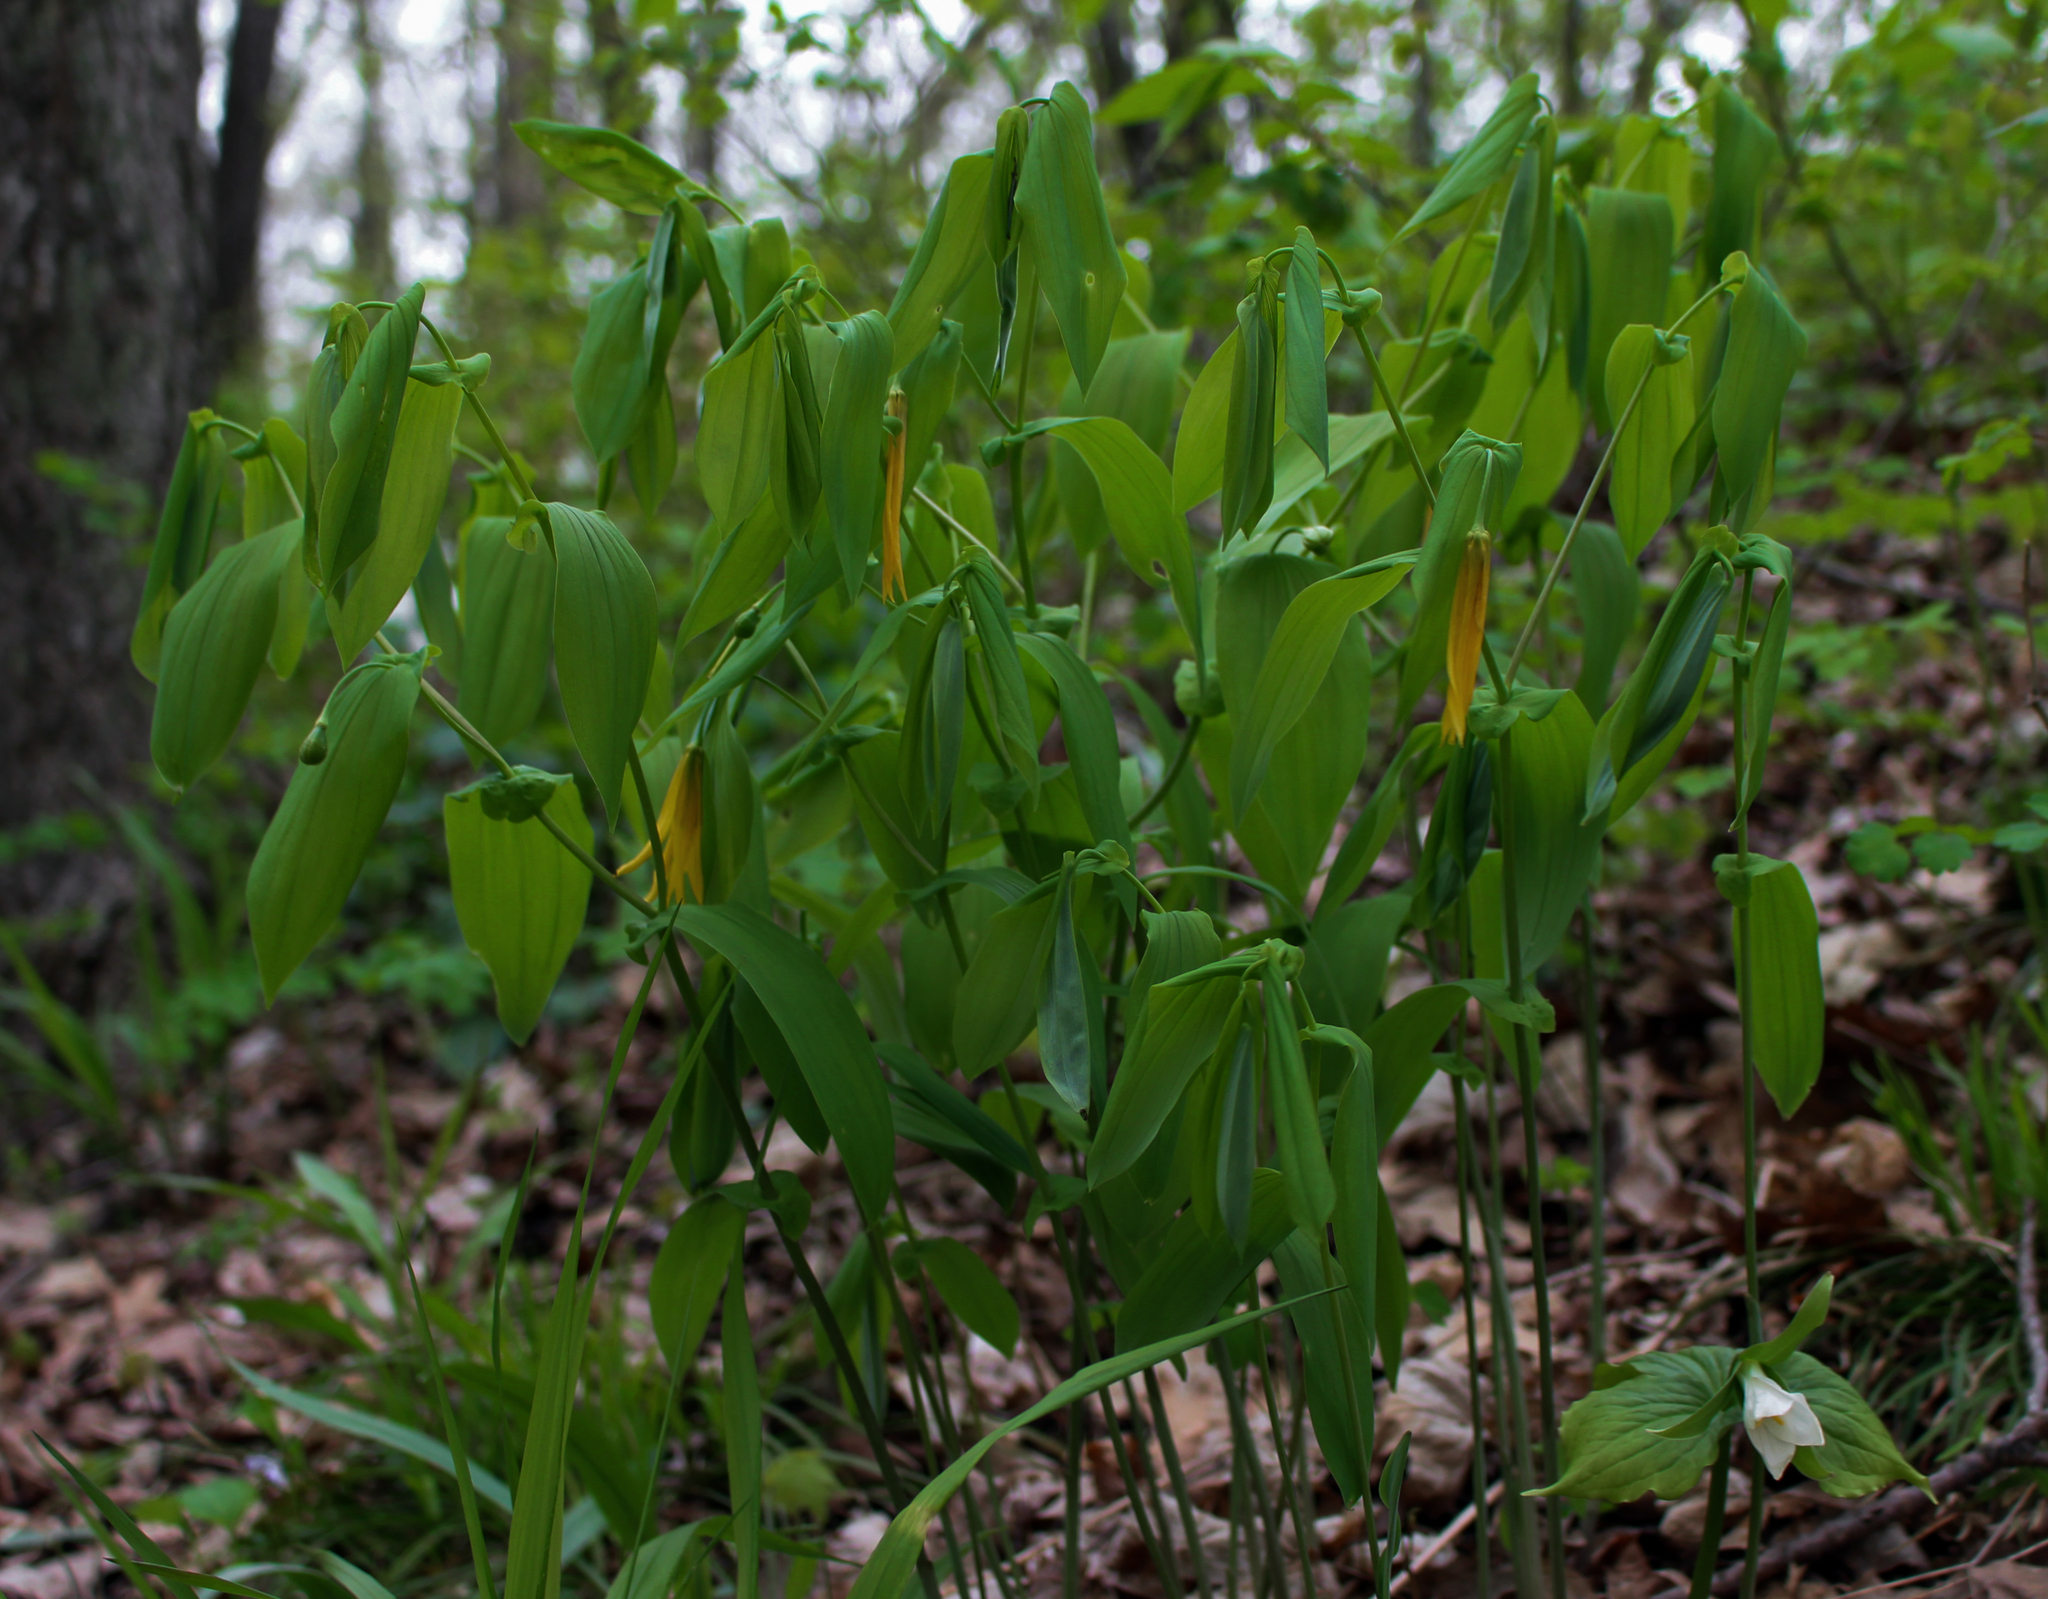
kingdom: Plantae
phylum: Tracheophyta
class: Liliopsida
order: Liliales
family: Colchicaceae
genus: Uvularia
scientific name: Uvularia grandiflora
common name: Bellwort
